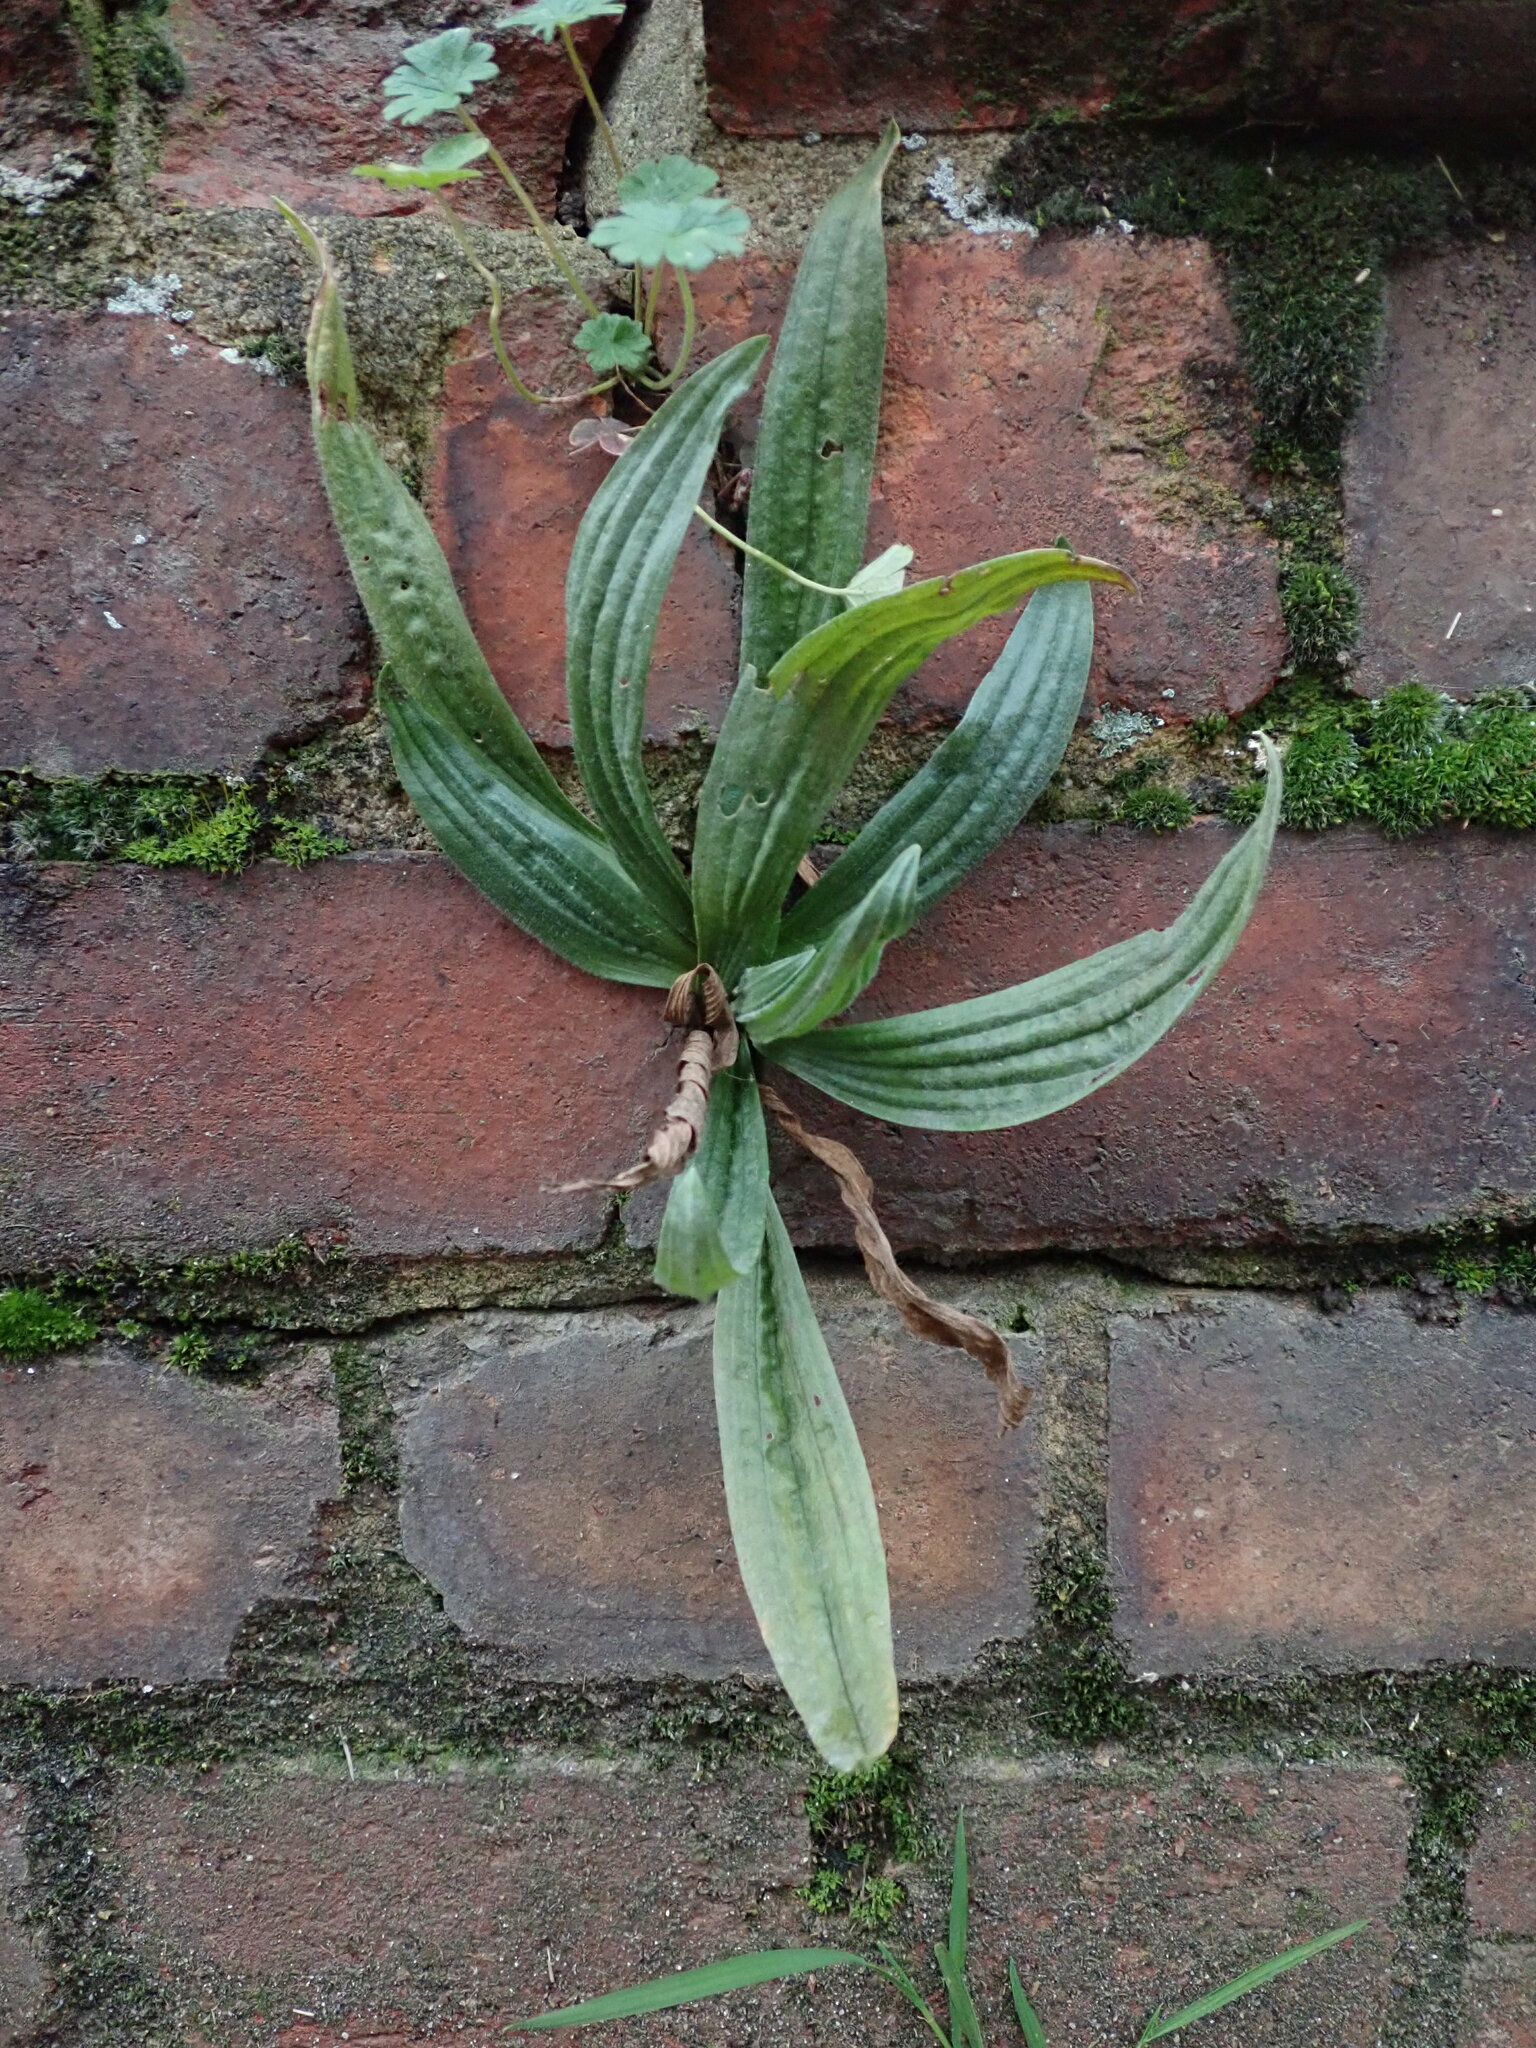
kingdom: Plantae
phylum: Tracheophyta
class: Magnoliopsida
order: Lamiales
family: Plantaginaceae
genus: Plantago
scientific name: Plantago lanceolata
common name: Ribwort plantain
